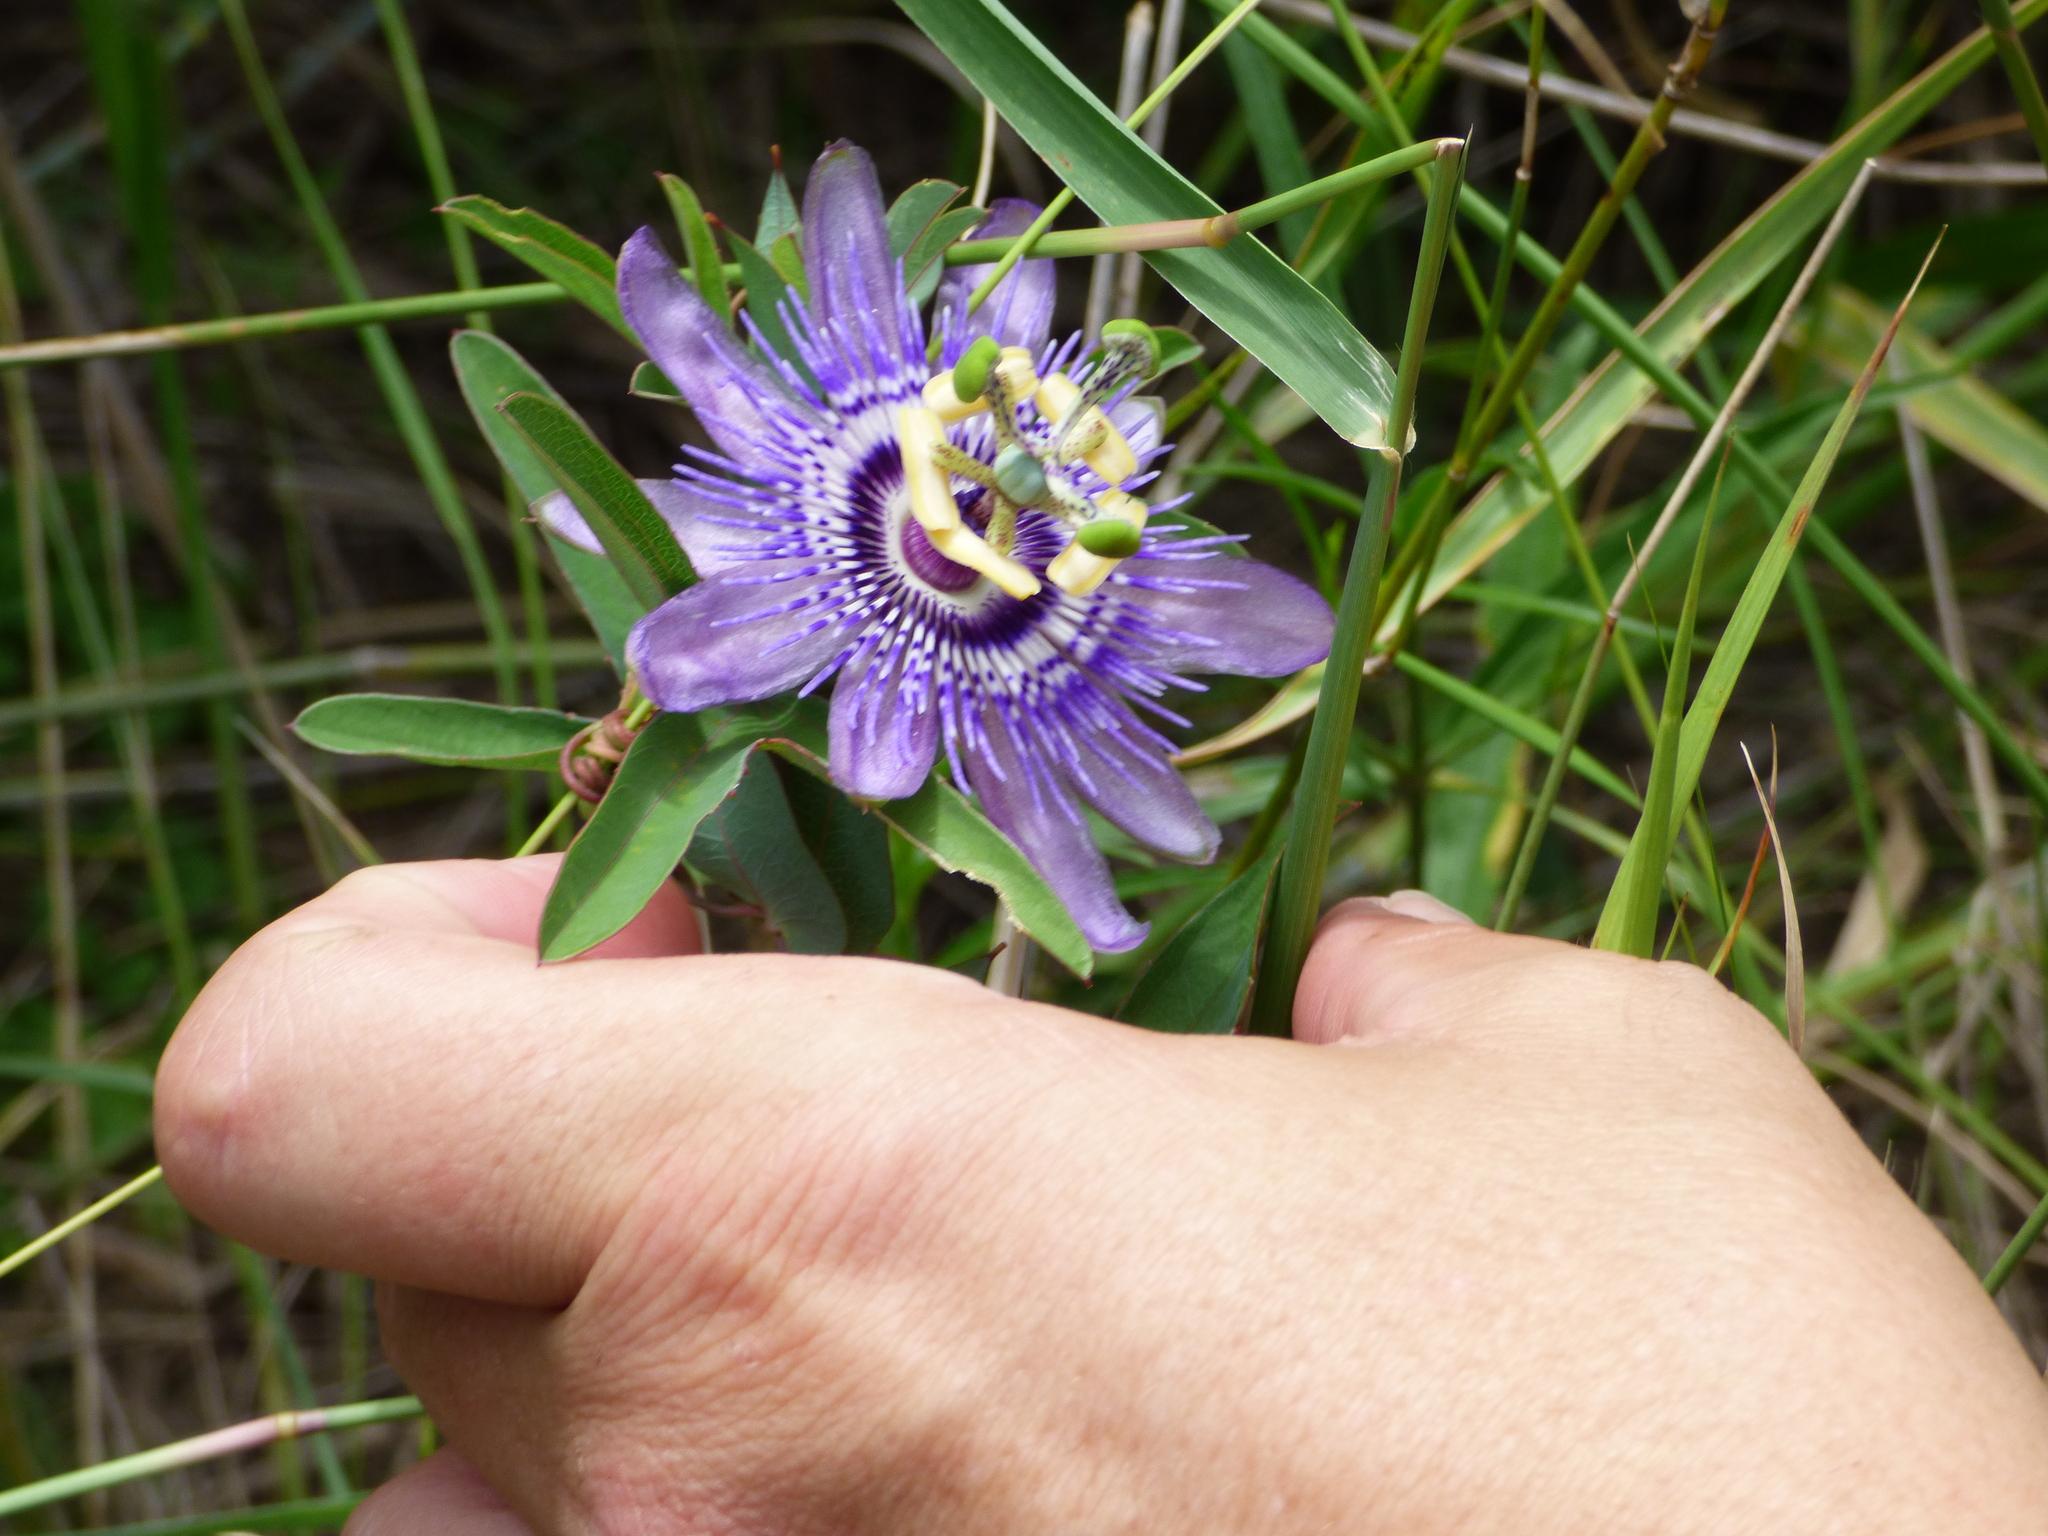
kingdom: Plantae
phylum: Tracheophyta
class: Magnoliopsida
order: Malpighiales
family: Passifloraceae
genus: Passiflora
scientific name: Passiflora mooreana
